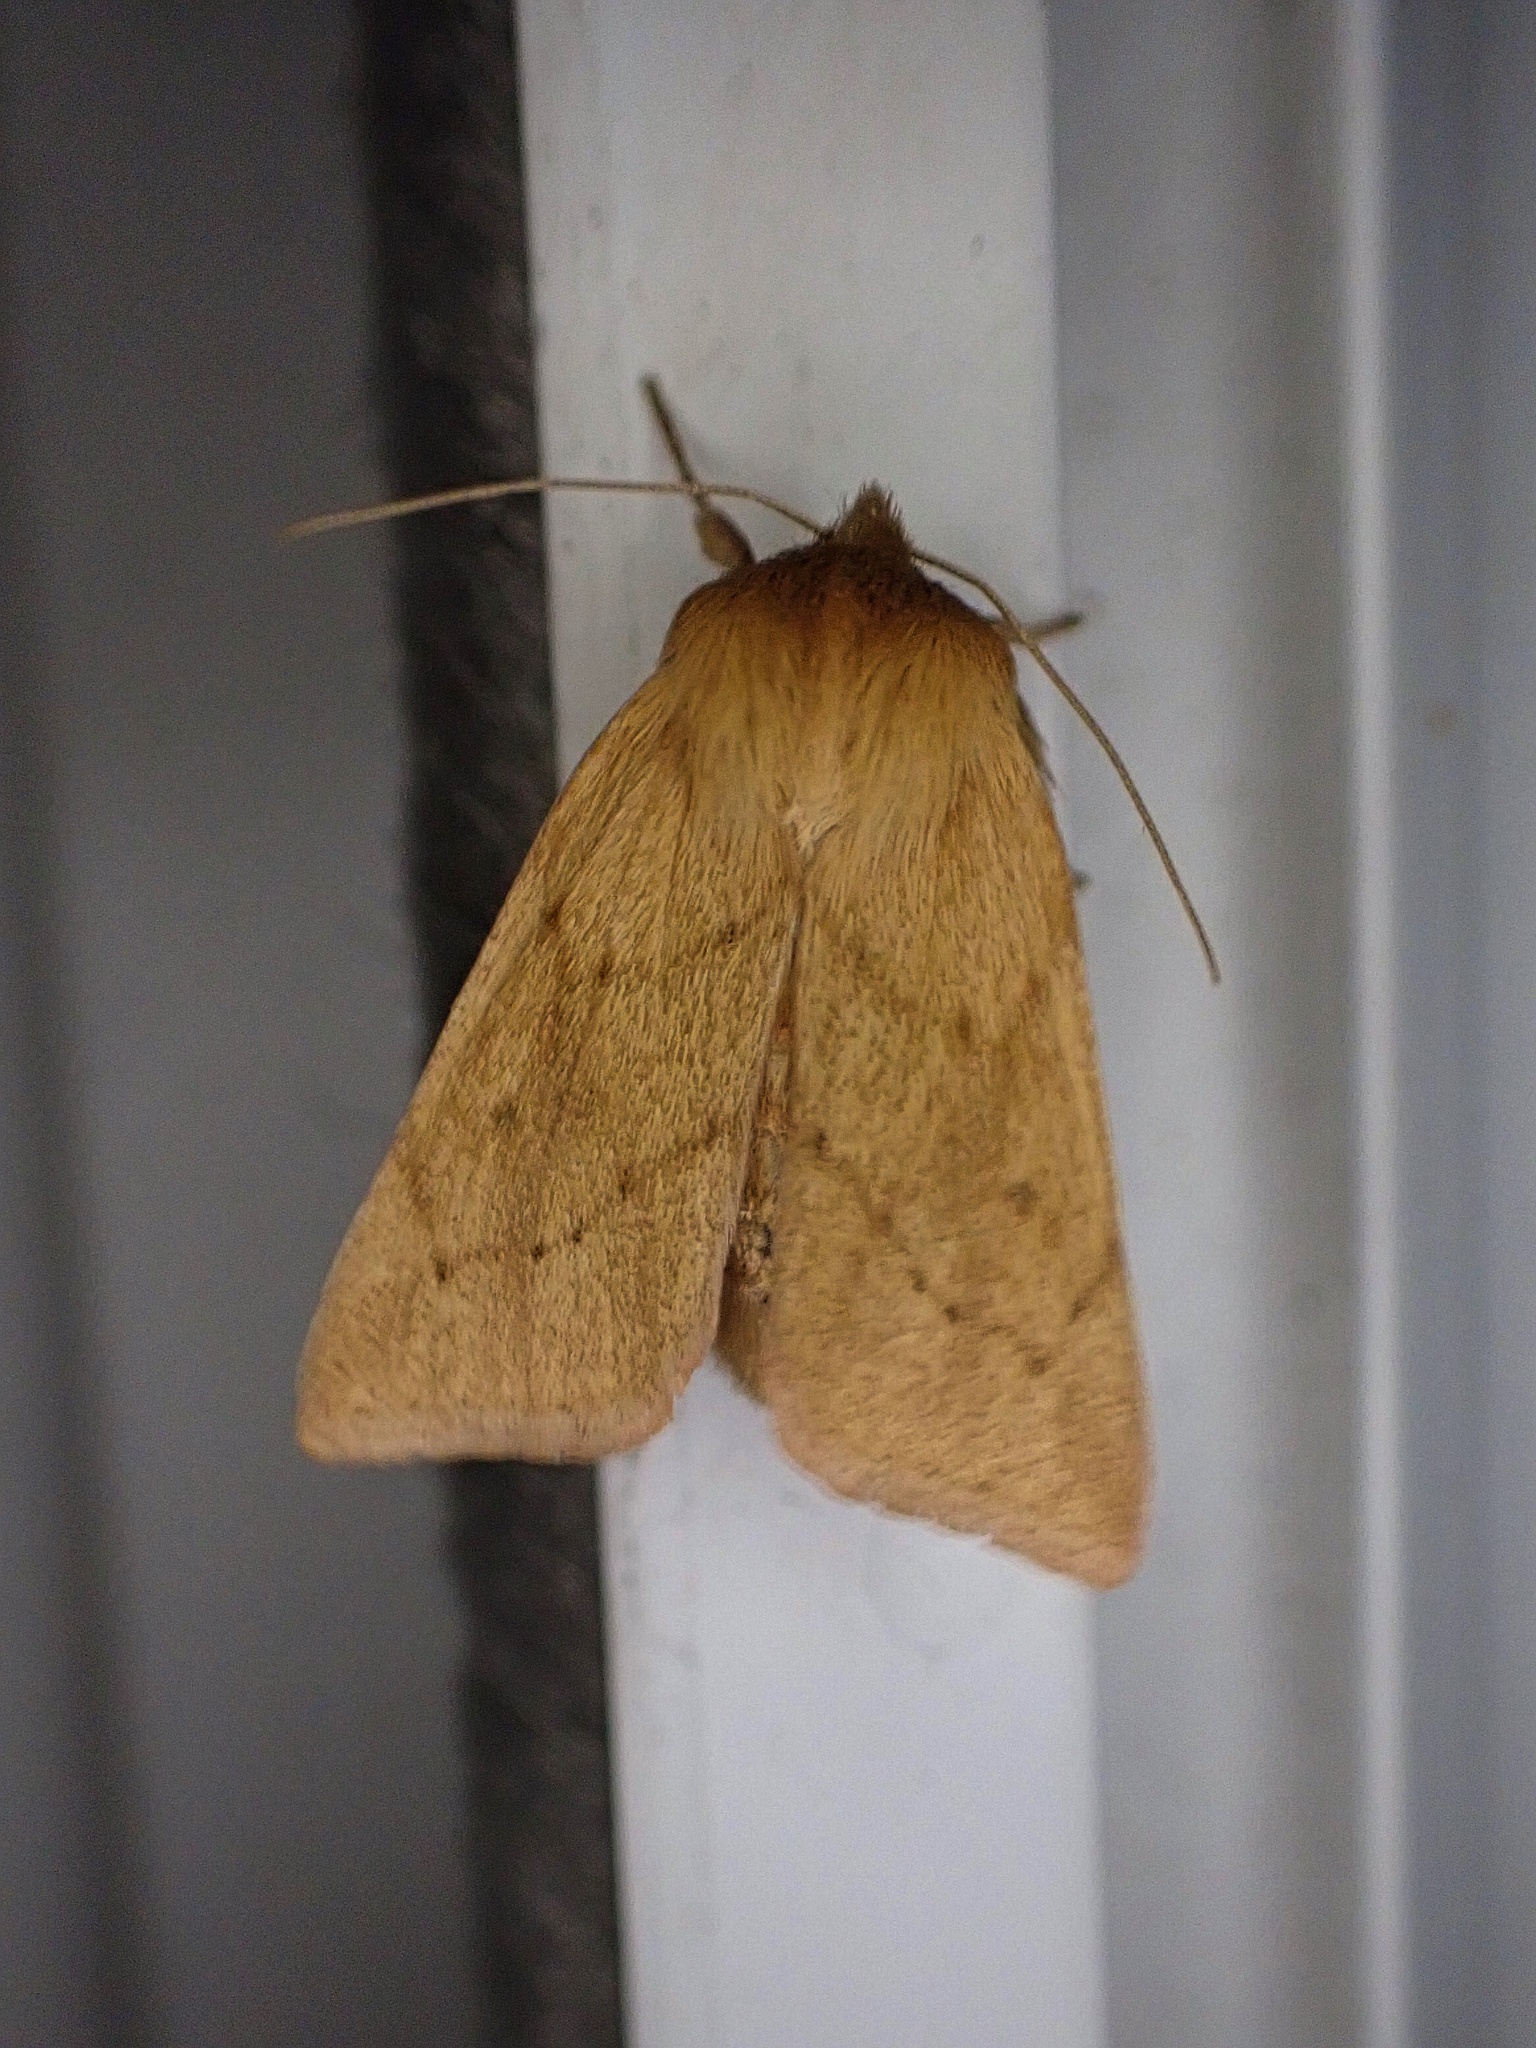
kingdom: Animalia
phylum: Arthropoda
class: Insecta
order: Lepidoptera
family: Noctuidae
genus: Zosteropoda
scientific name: Zosteropoda hirtipes
